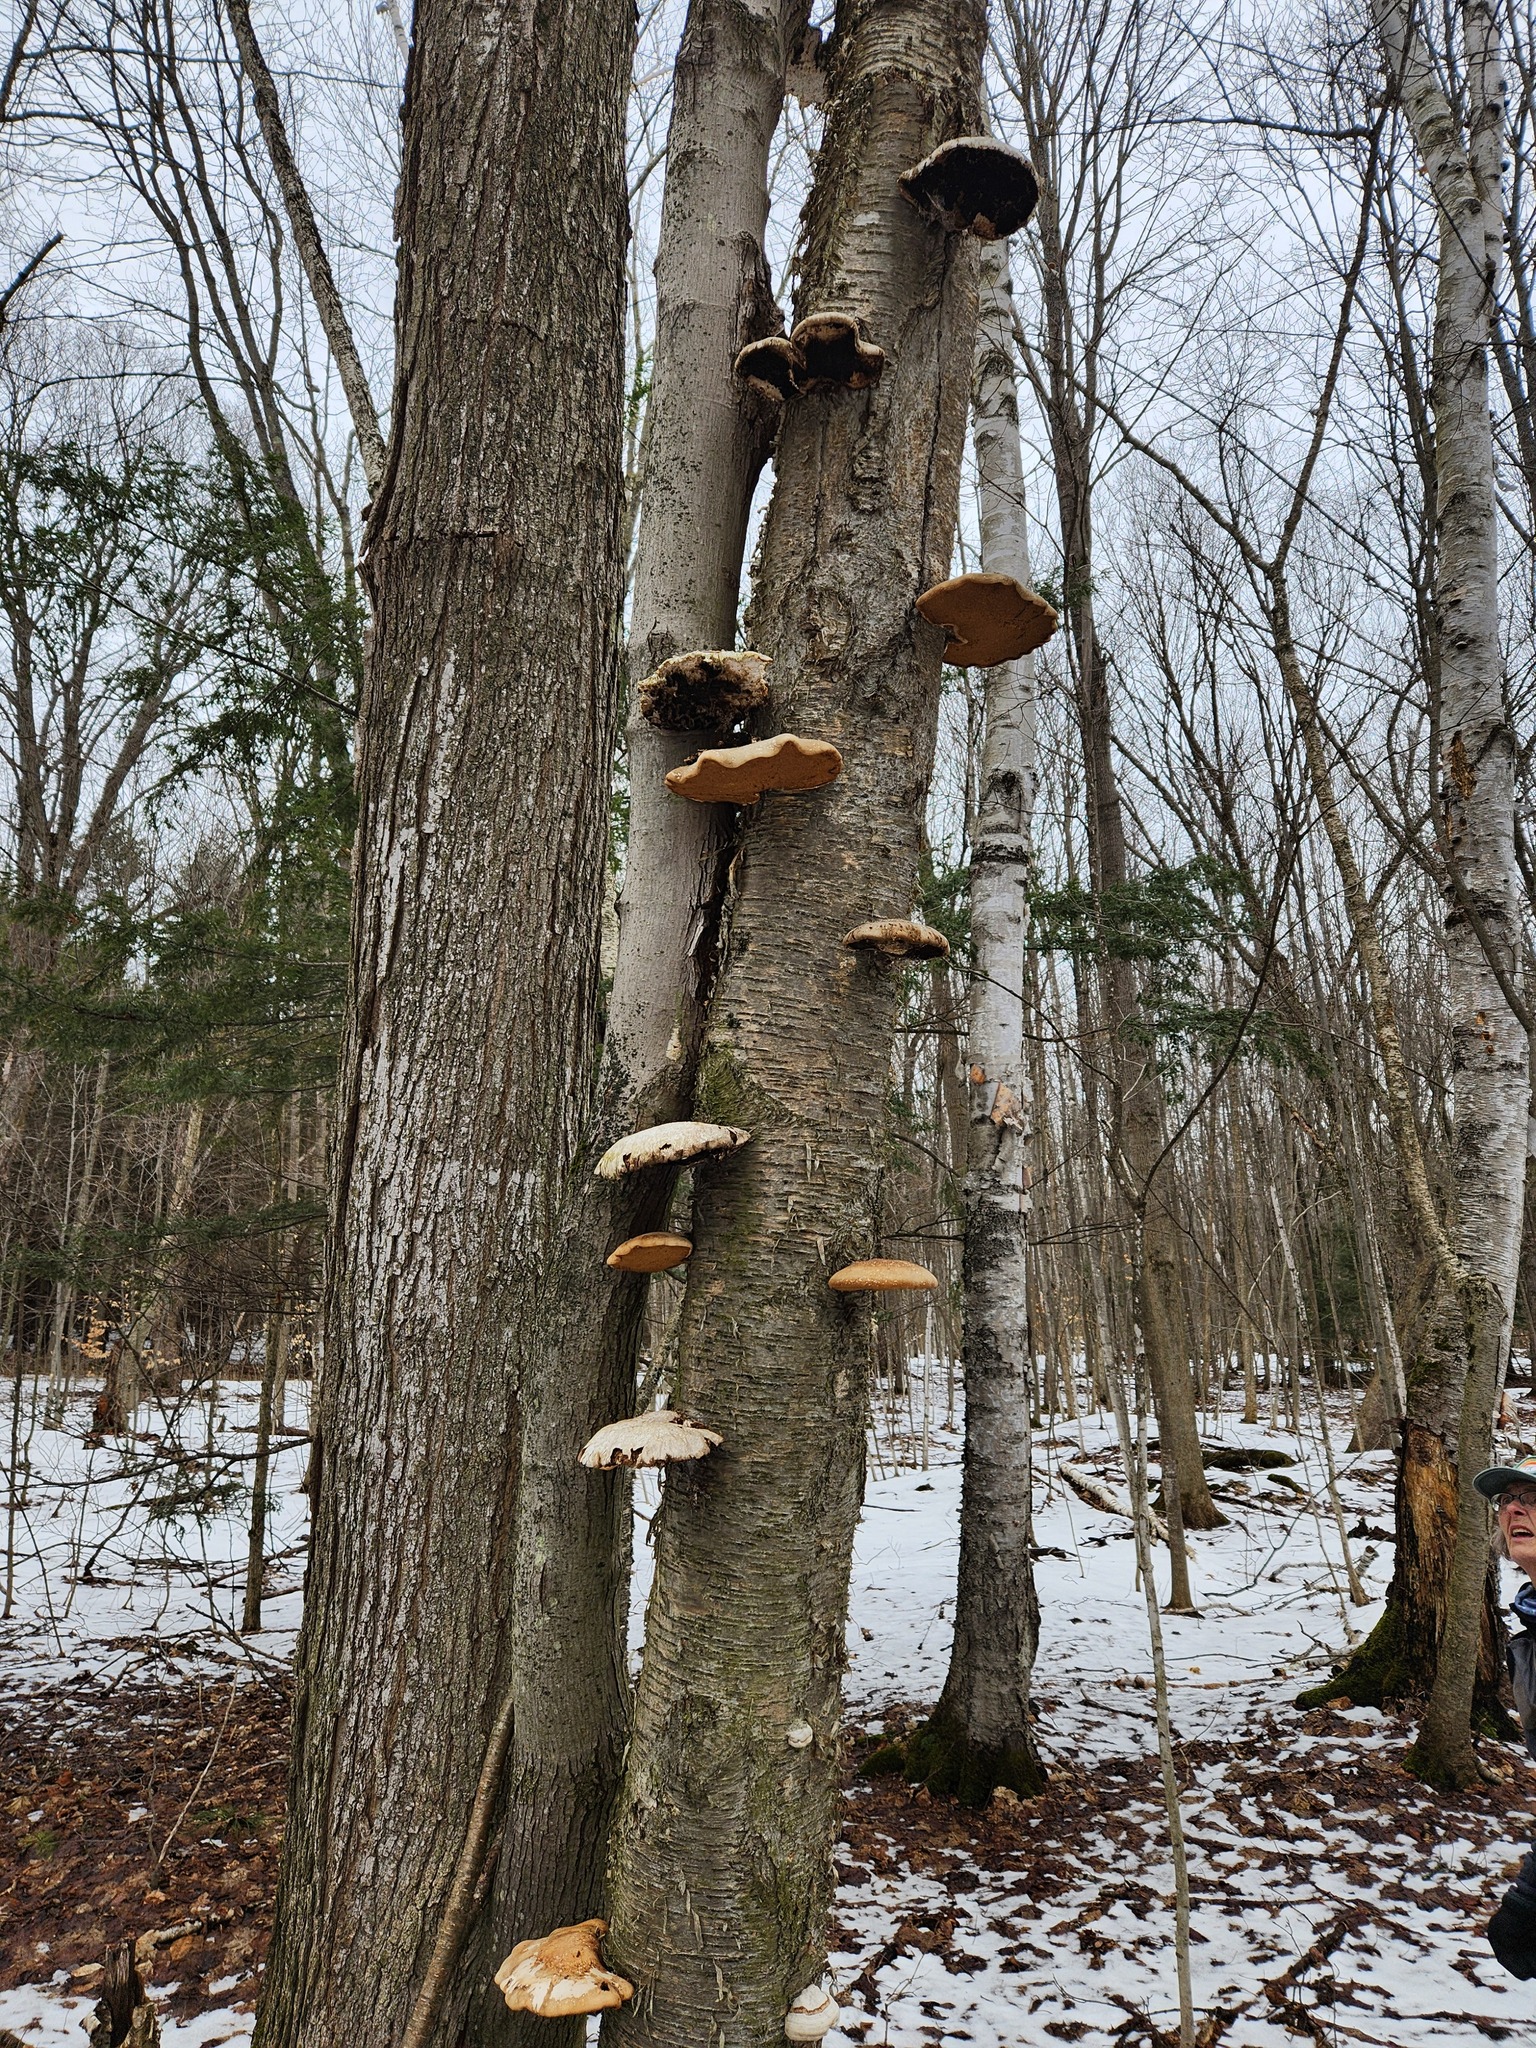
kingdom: Fungi
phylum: Basidiomycota
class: Agaricomycetes
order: Polyporales
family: Fomitopsidaceae
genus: Fomitopsis
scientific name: Fomitopsis betulina
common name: Birch polypore
